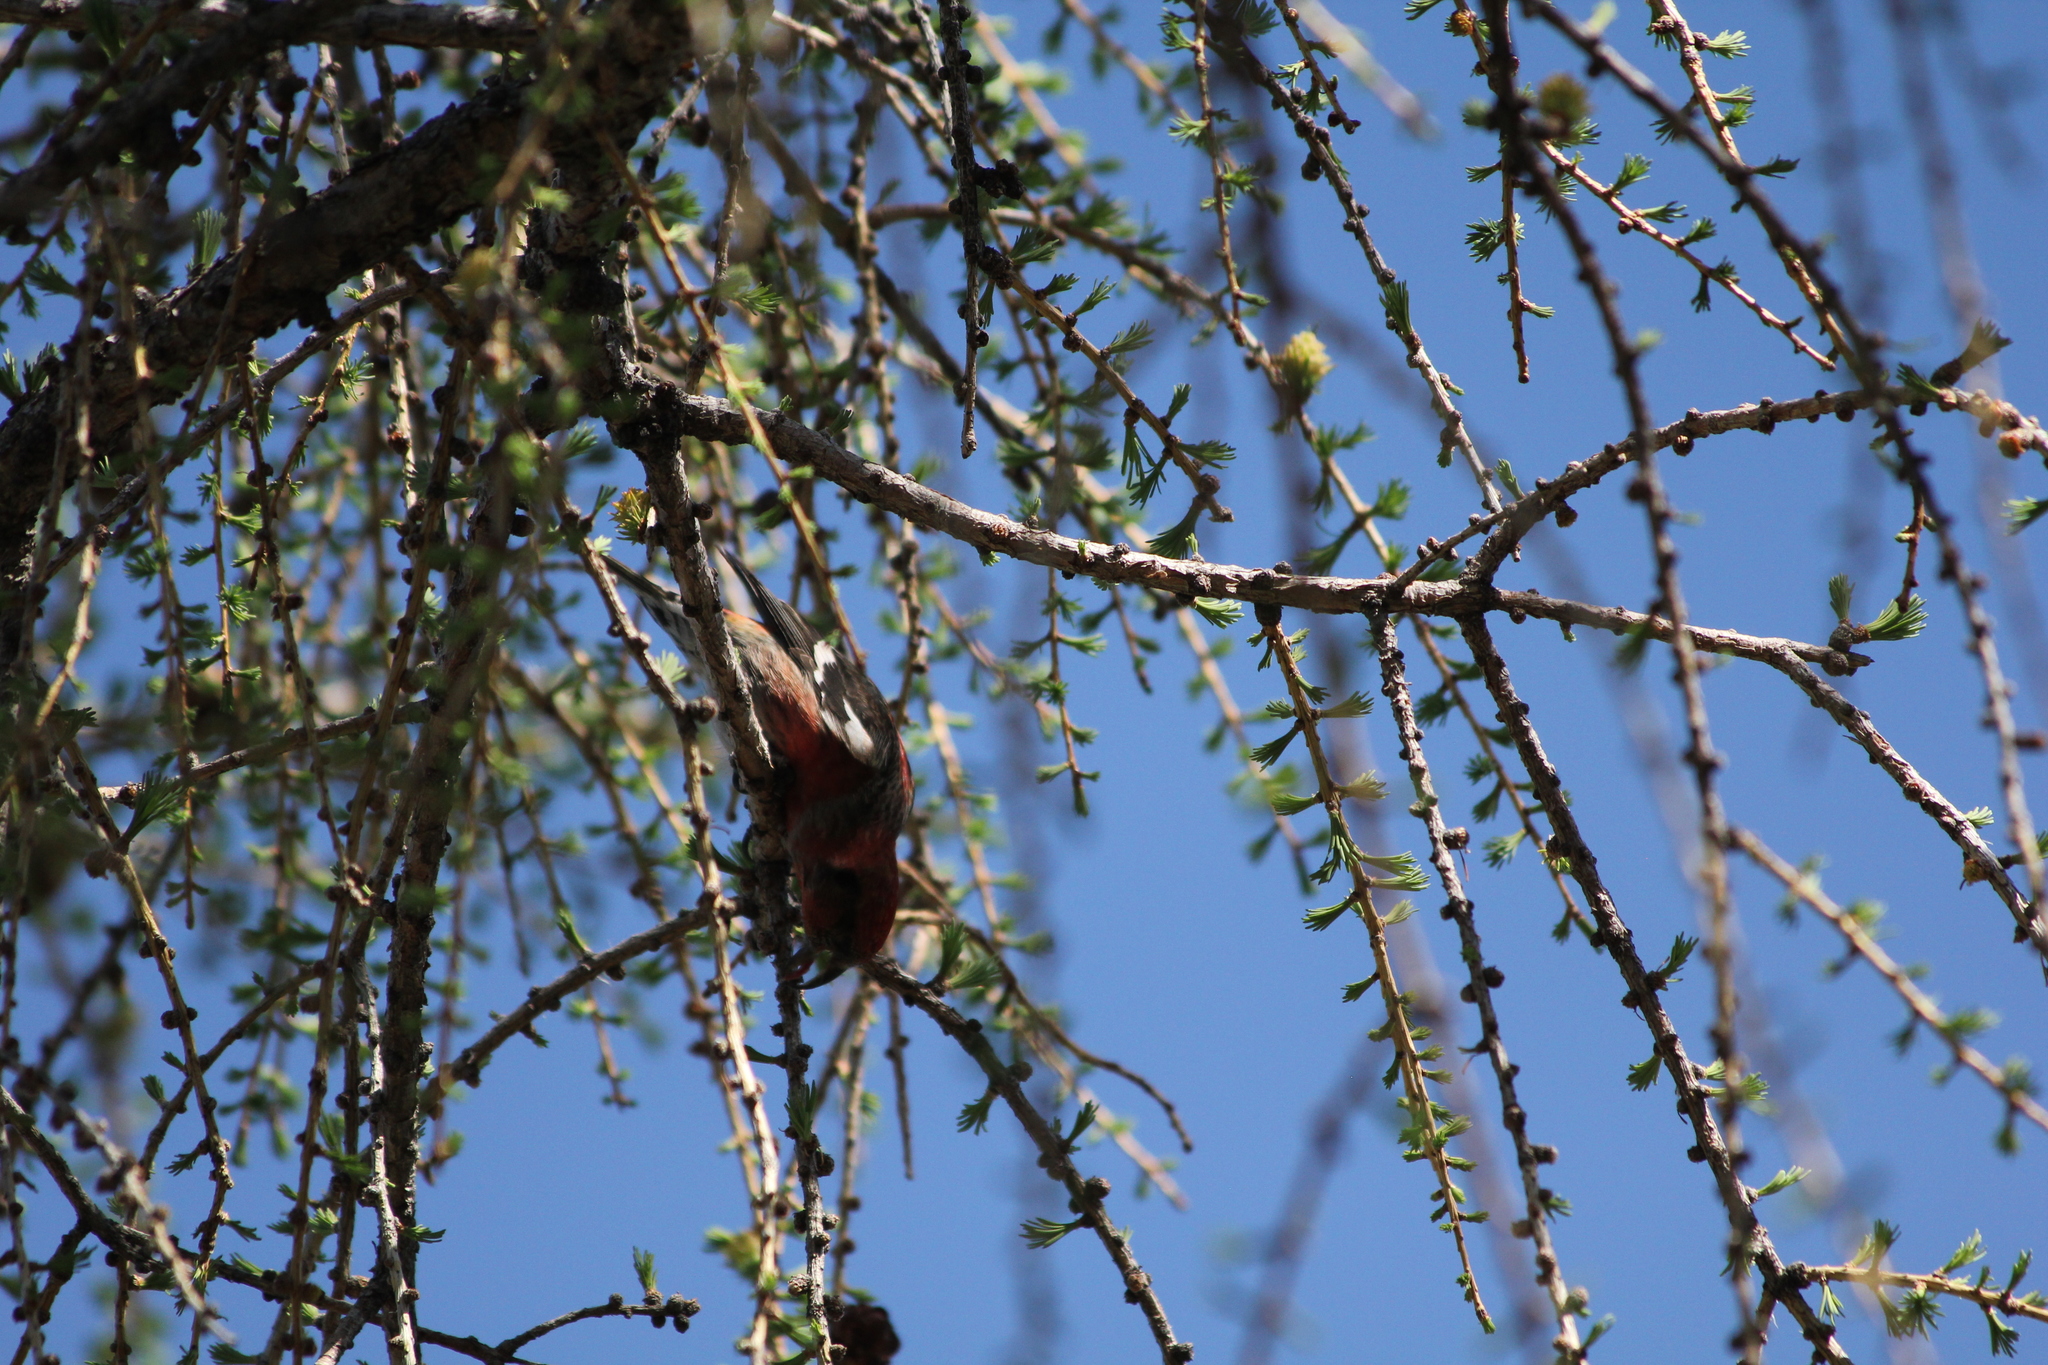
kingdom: Animalia
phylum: Chordata
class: Aves
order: Passeriformes
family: Fringillidae
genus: Loxia
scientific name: Loxia leucoptera
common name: Two-barred crossbill
